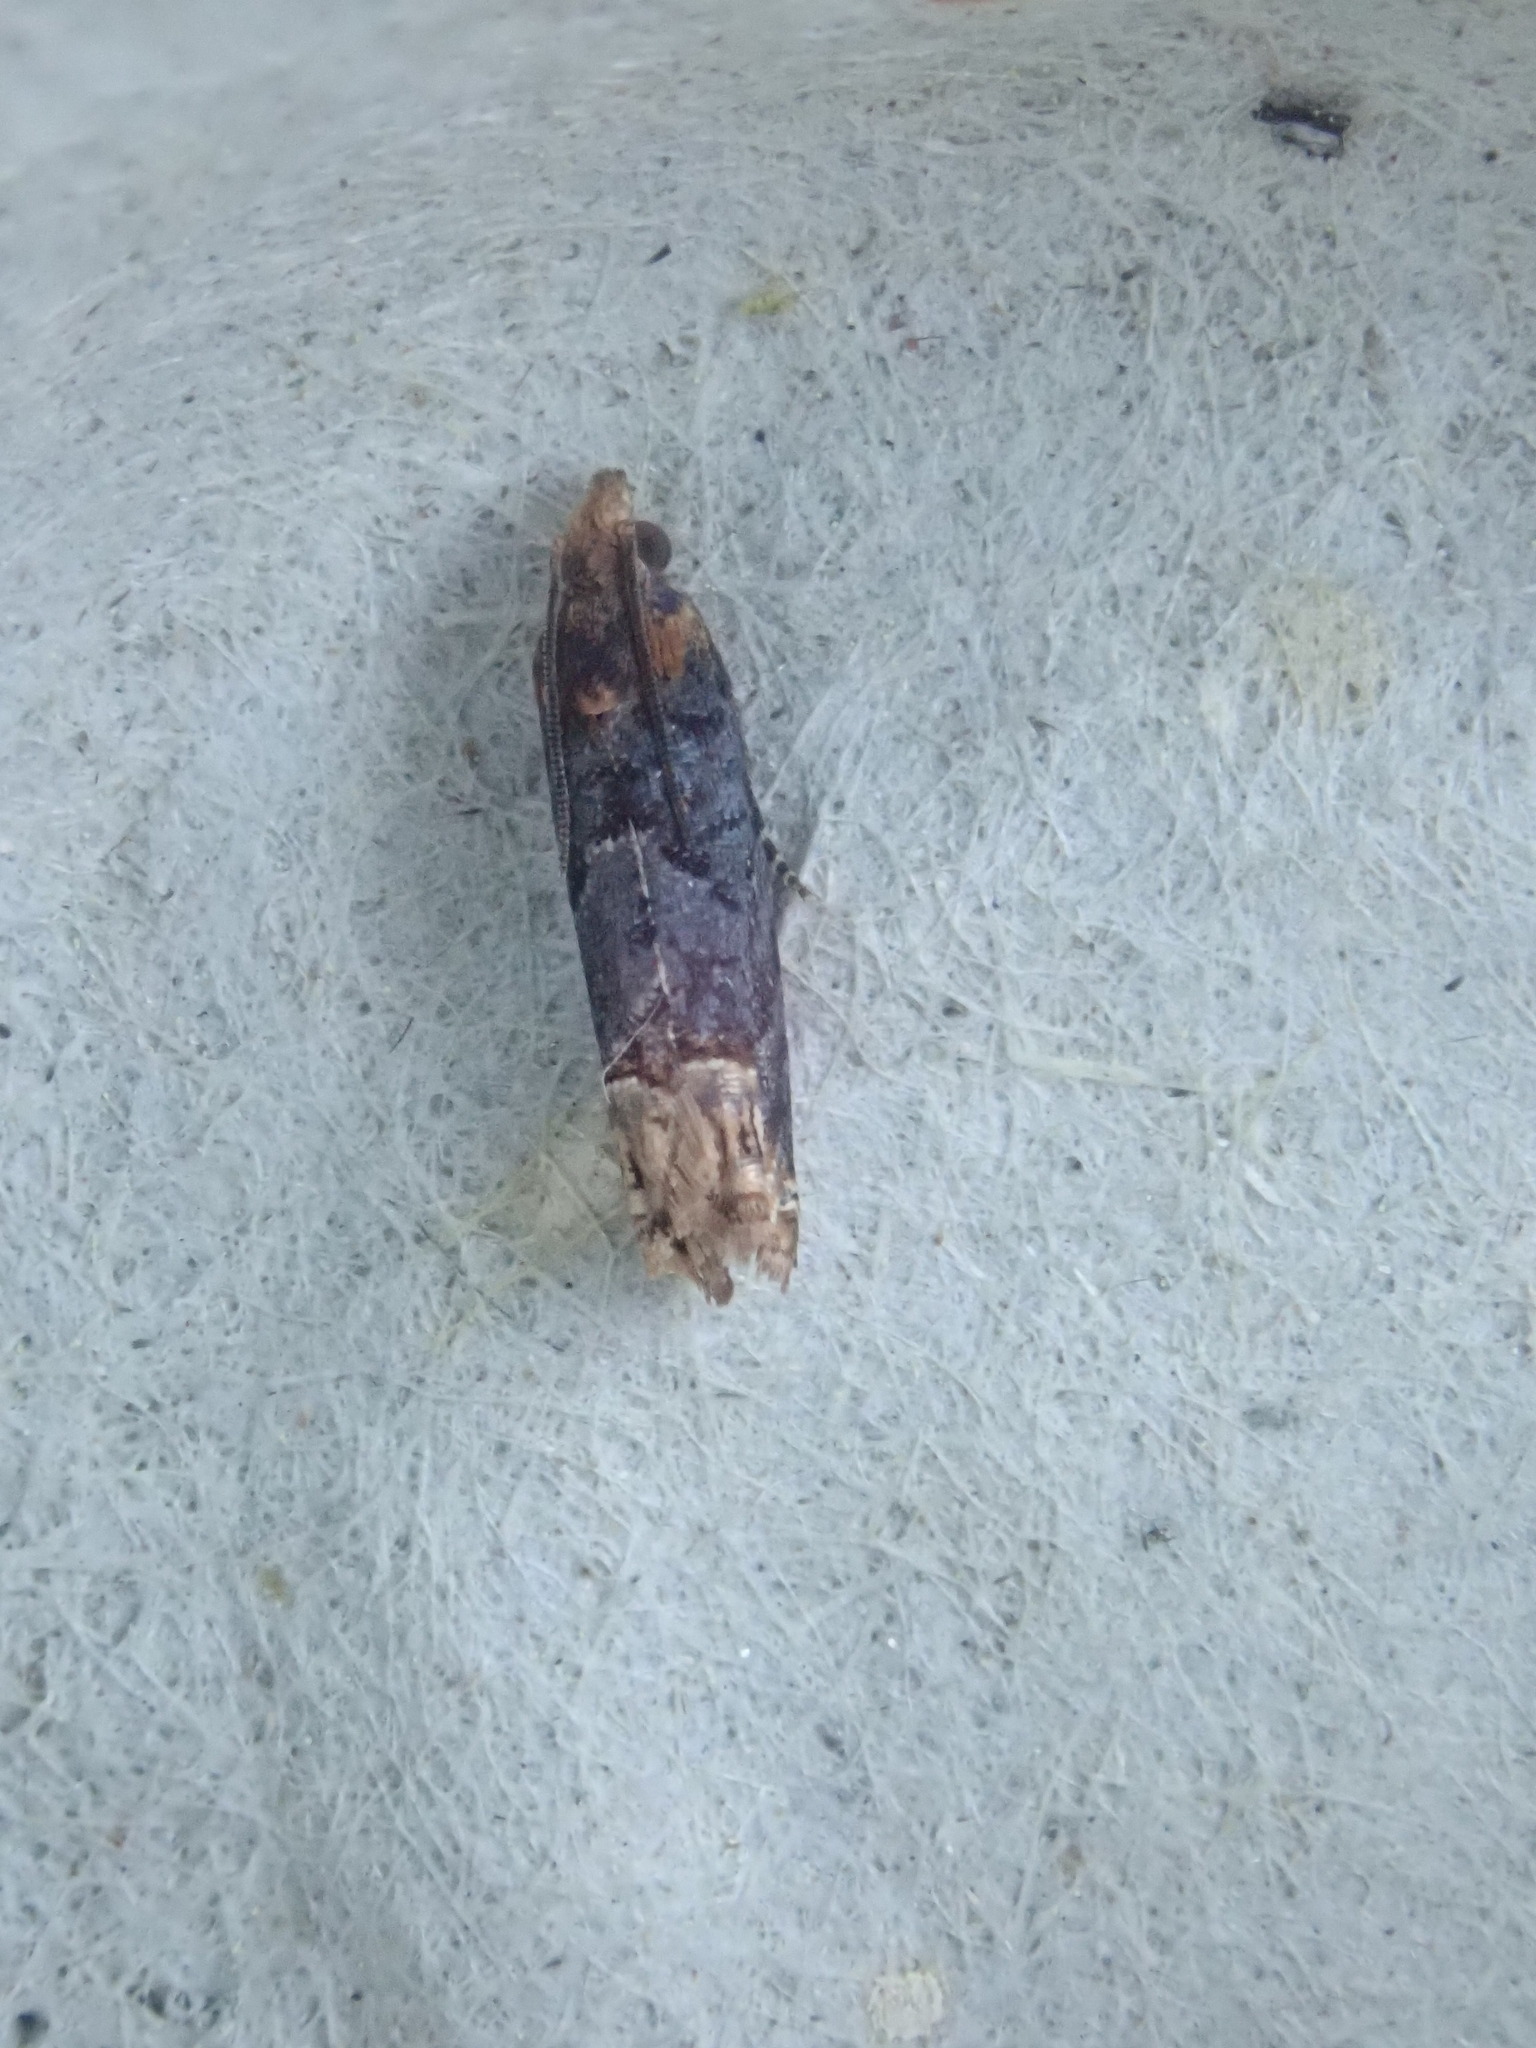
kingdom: Animalia
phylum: Arthropoda
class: Insecta
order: Lepidoptera
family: Tortricidae
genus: Eucosma
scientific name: Eucosma ochroterminana
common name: Buff-tipped eucosma moth
